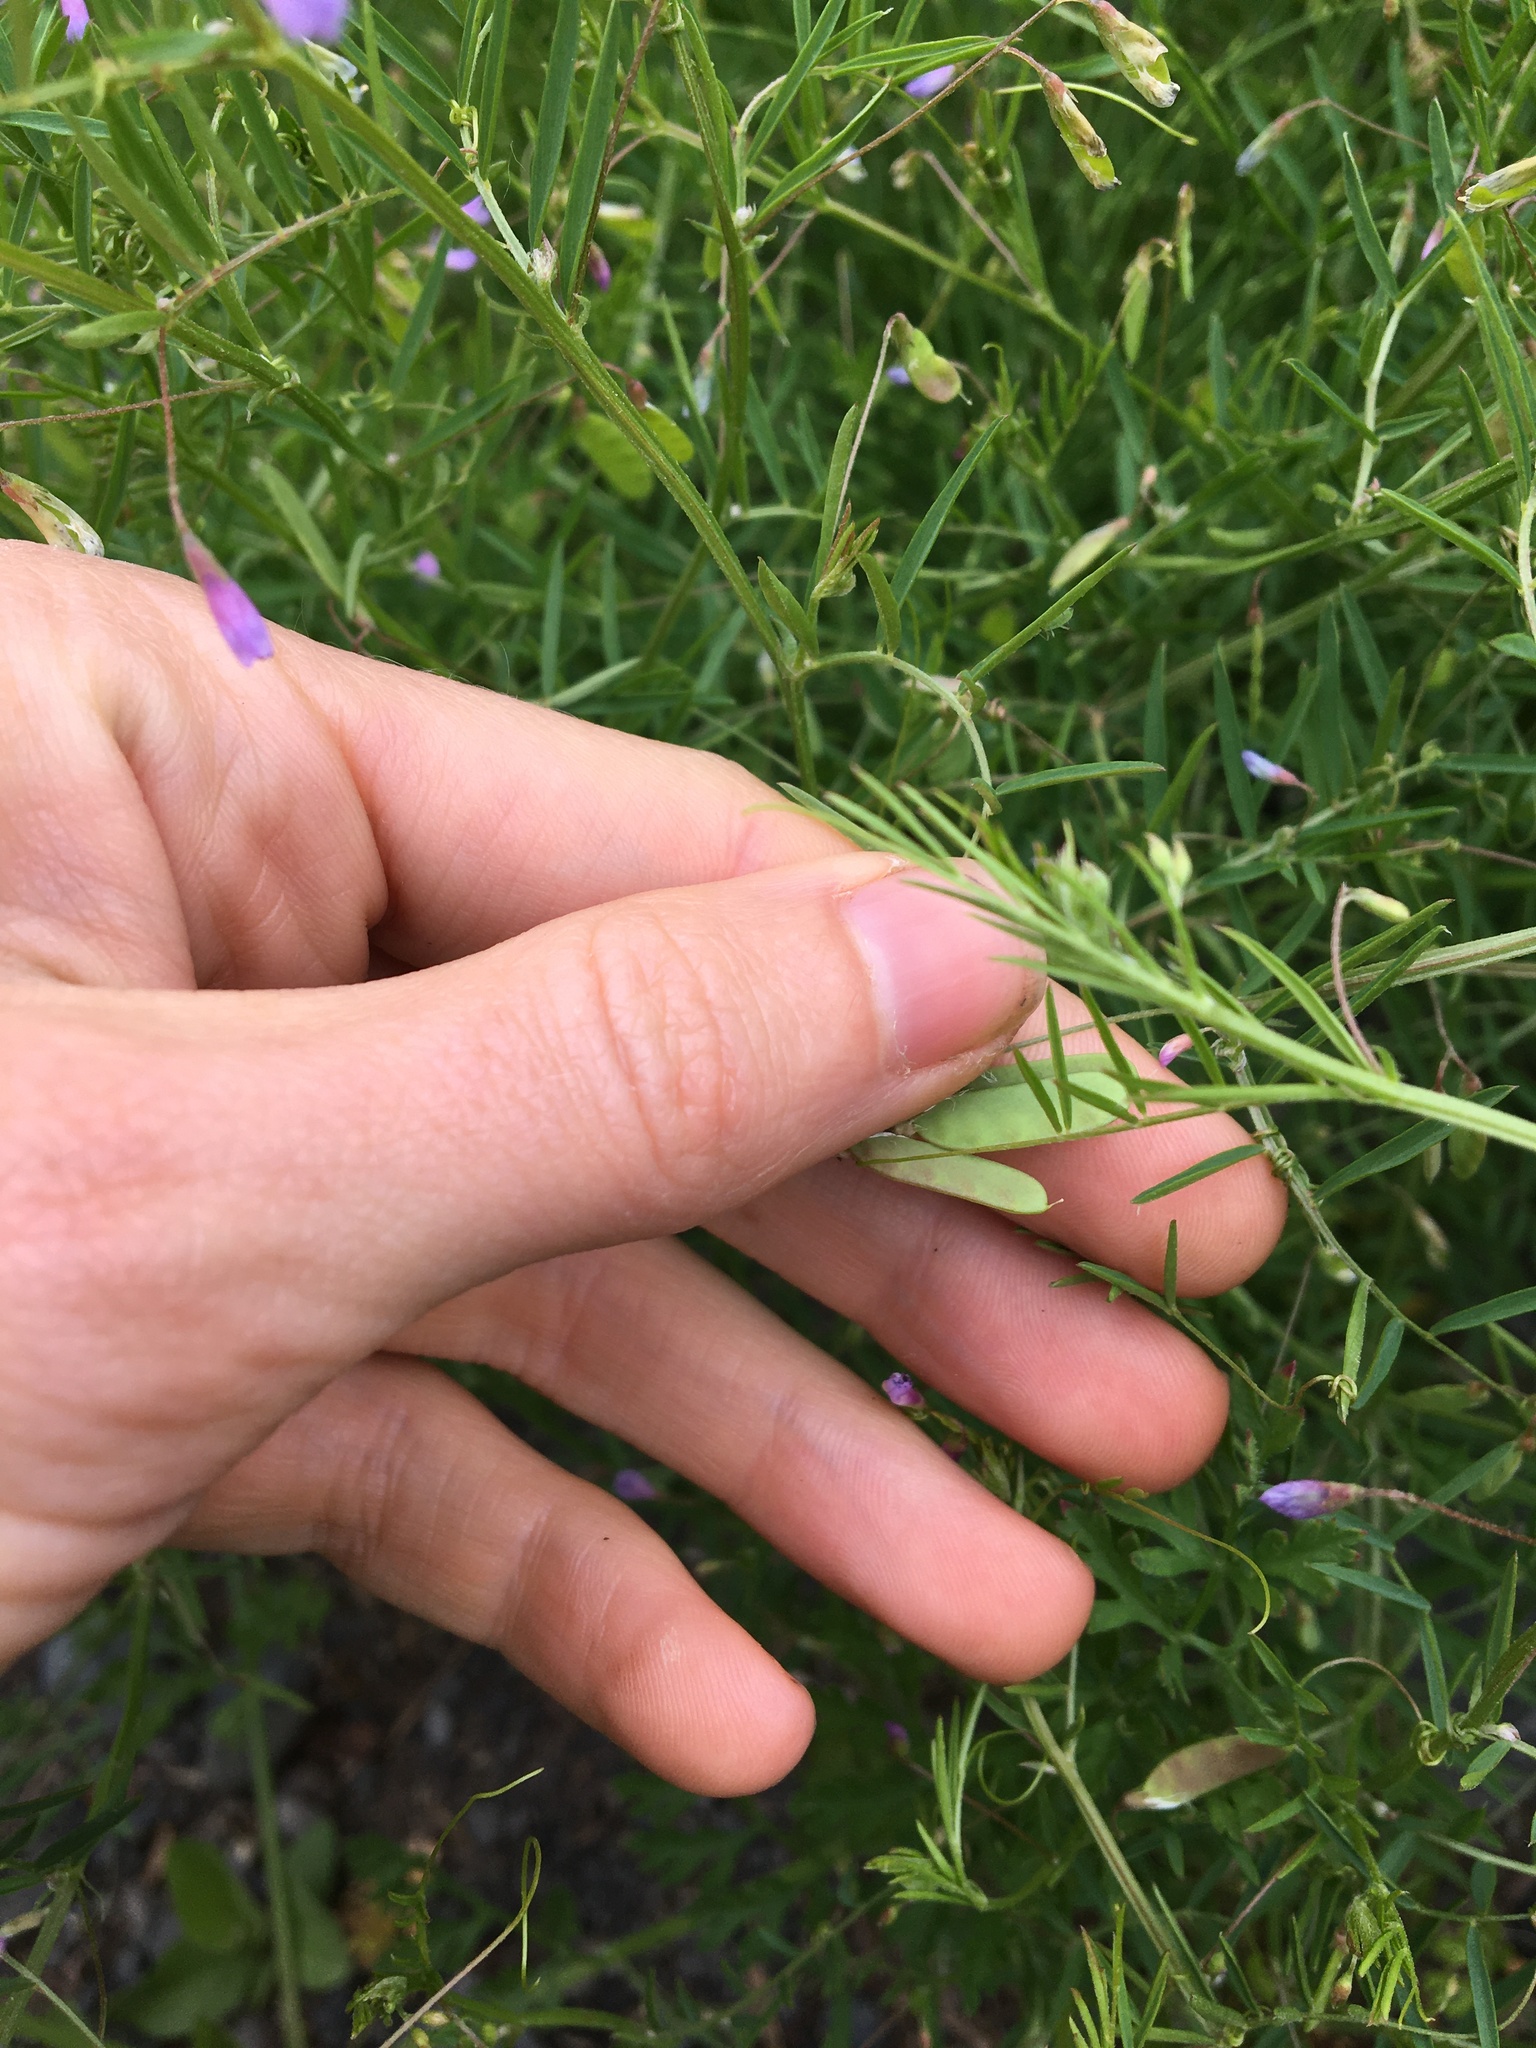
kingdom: Plantae
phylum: Tracheophyta
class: Magnoliopsida
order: Fabales
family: Fabaceae
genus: Vicia
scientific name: Vicia tetrasperma
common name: Smooth tare
